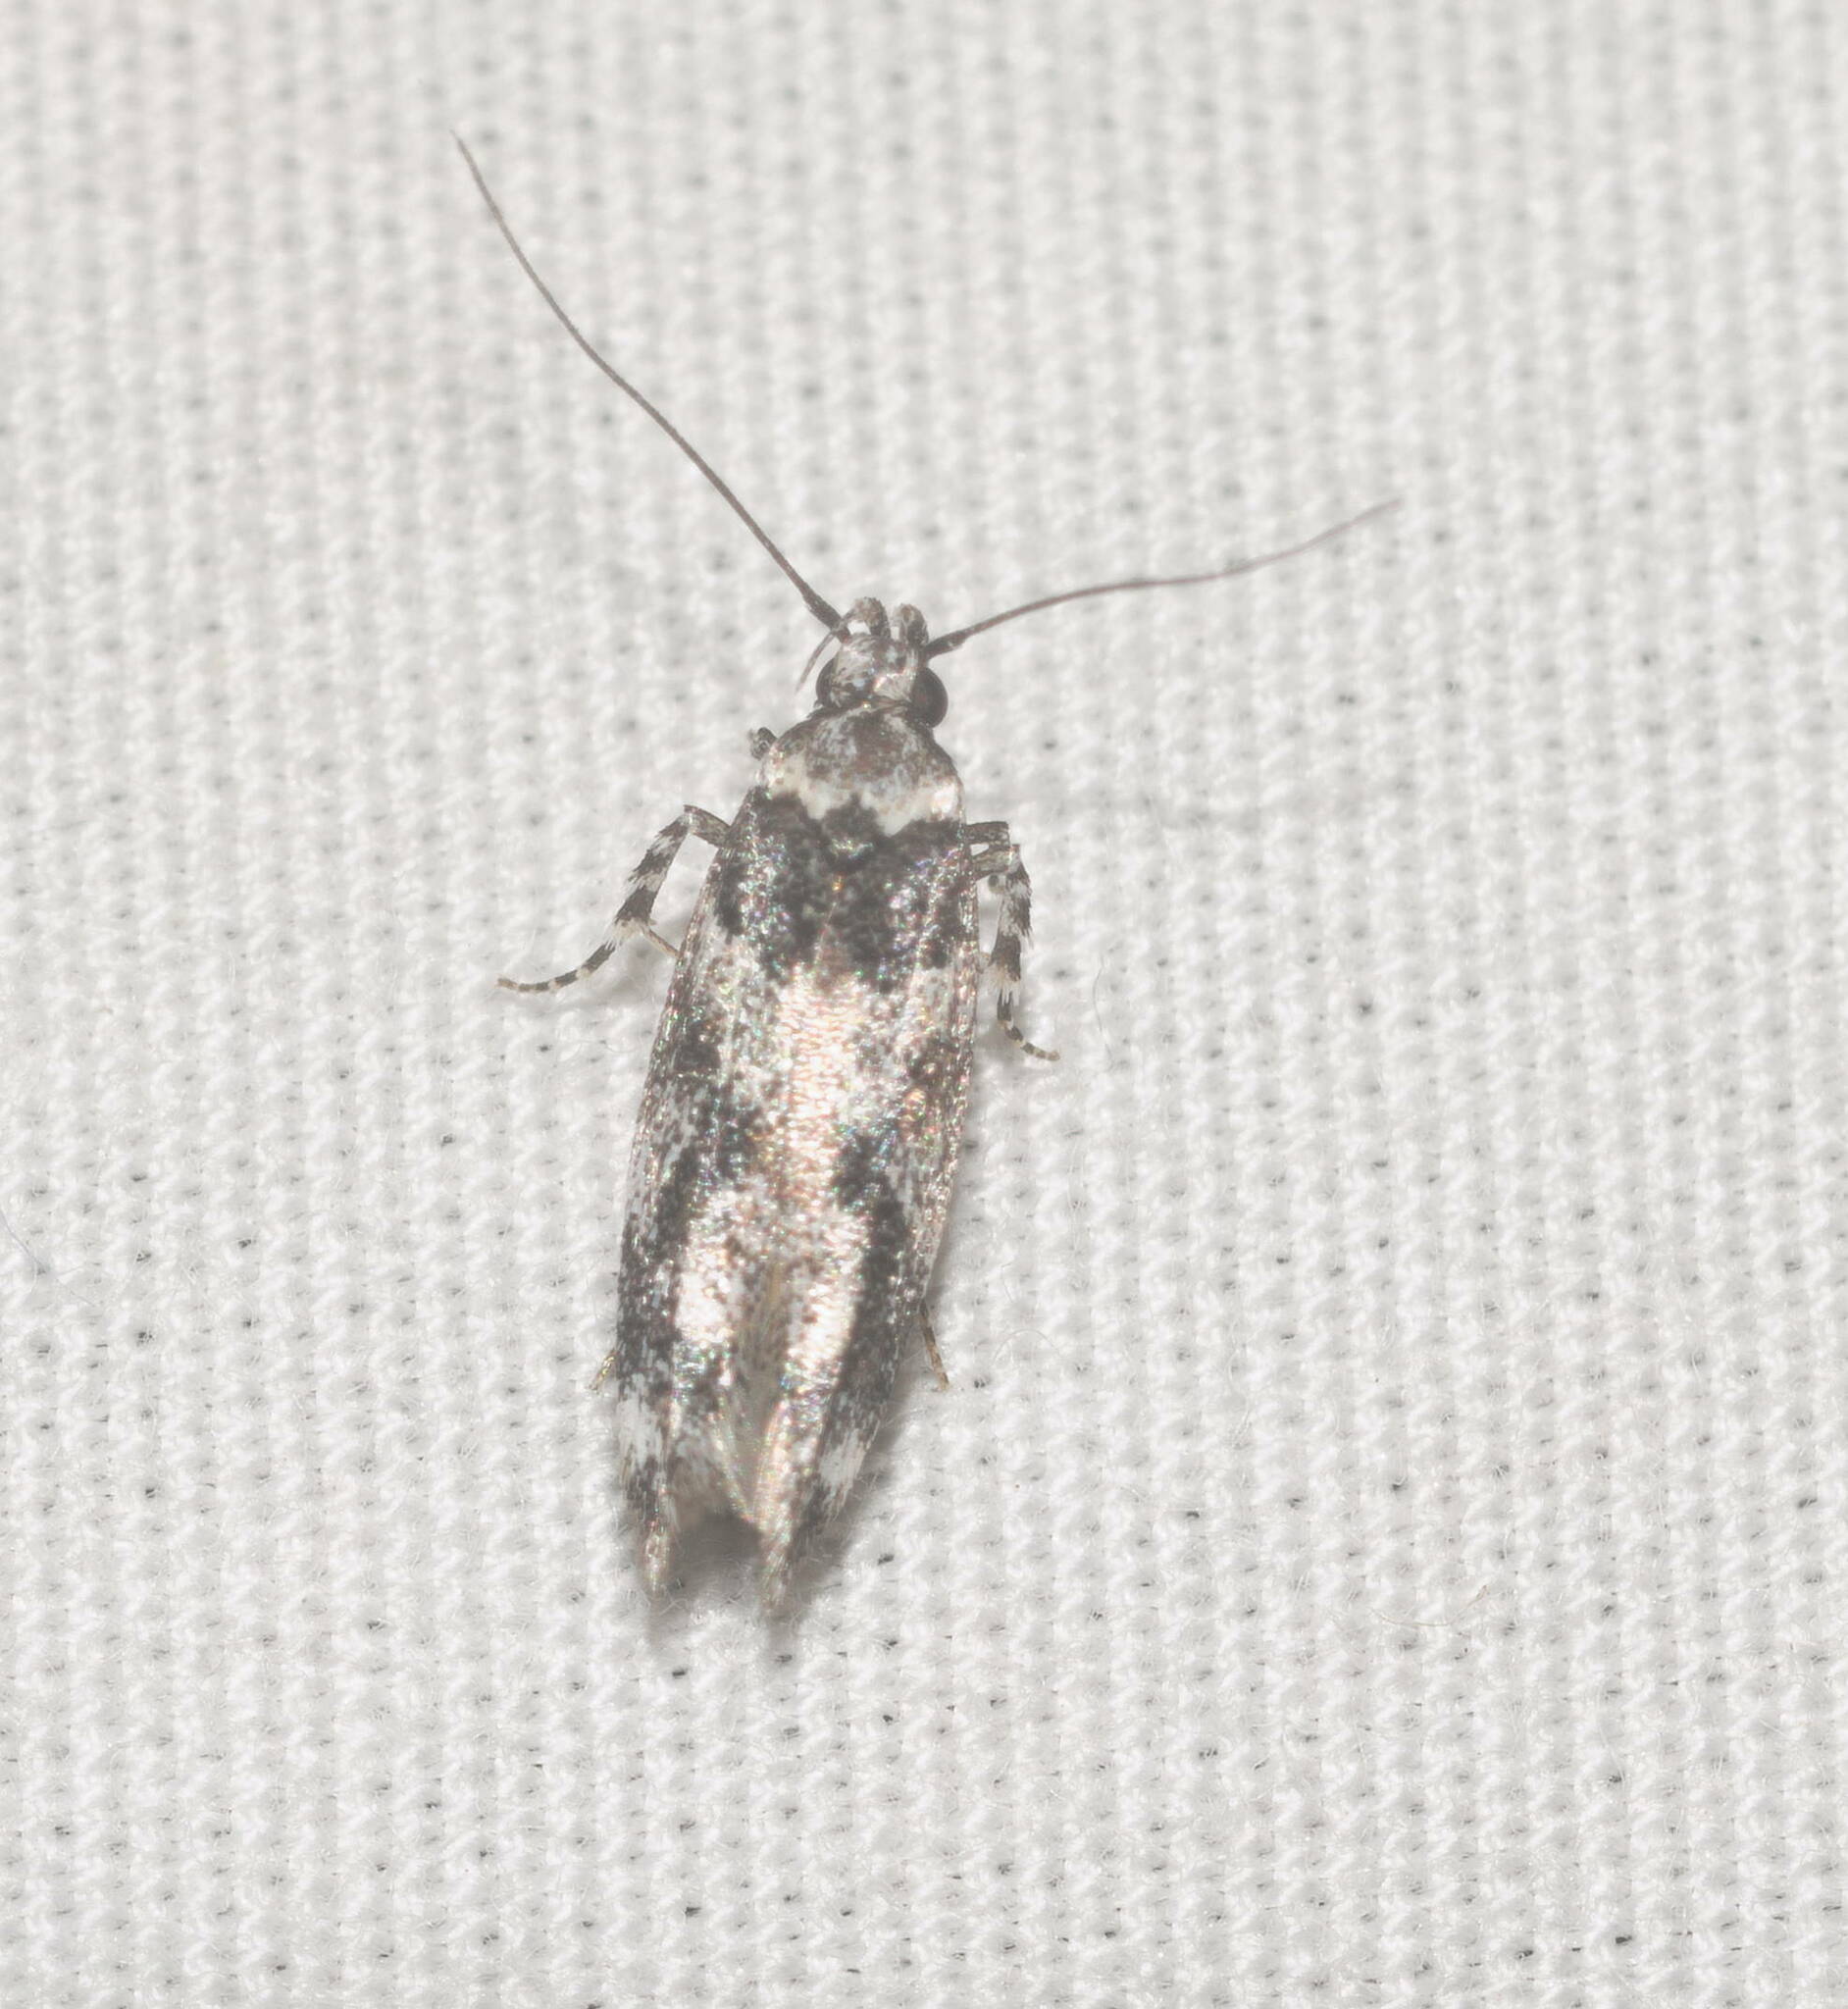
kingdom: Animalia
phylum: Arthropoda
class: Insecta
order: Lepidoptera
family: Cosmopterigidae
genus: Hyposmochoma
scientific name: Hyposmochoma empedota
